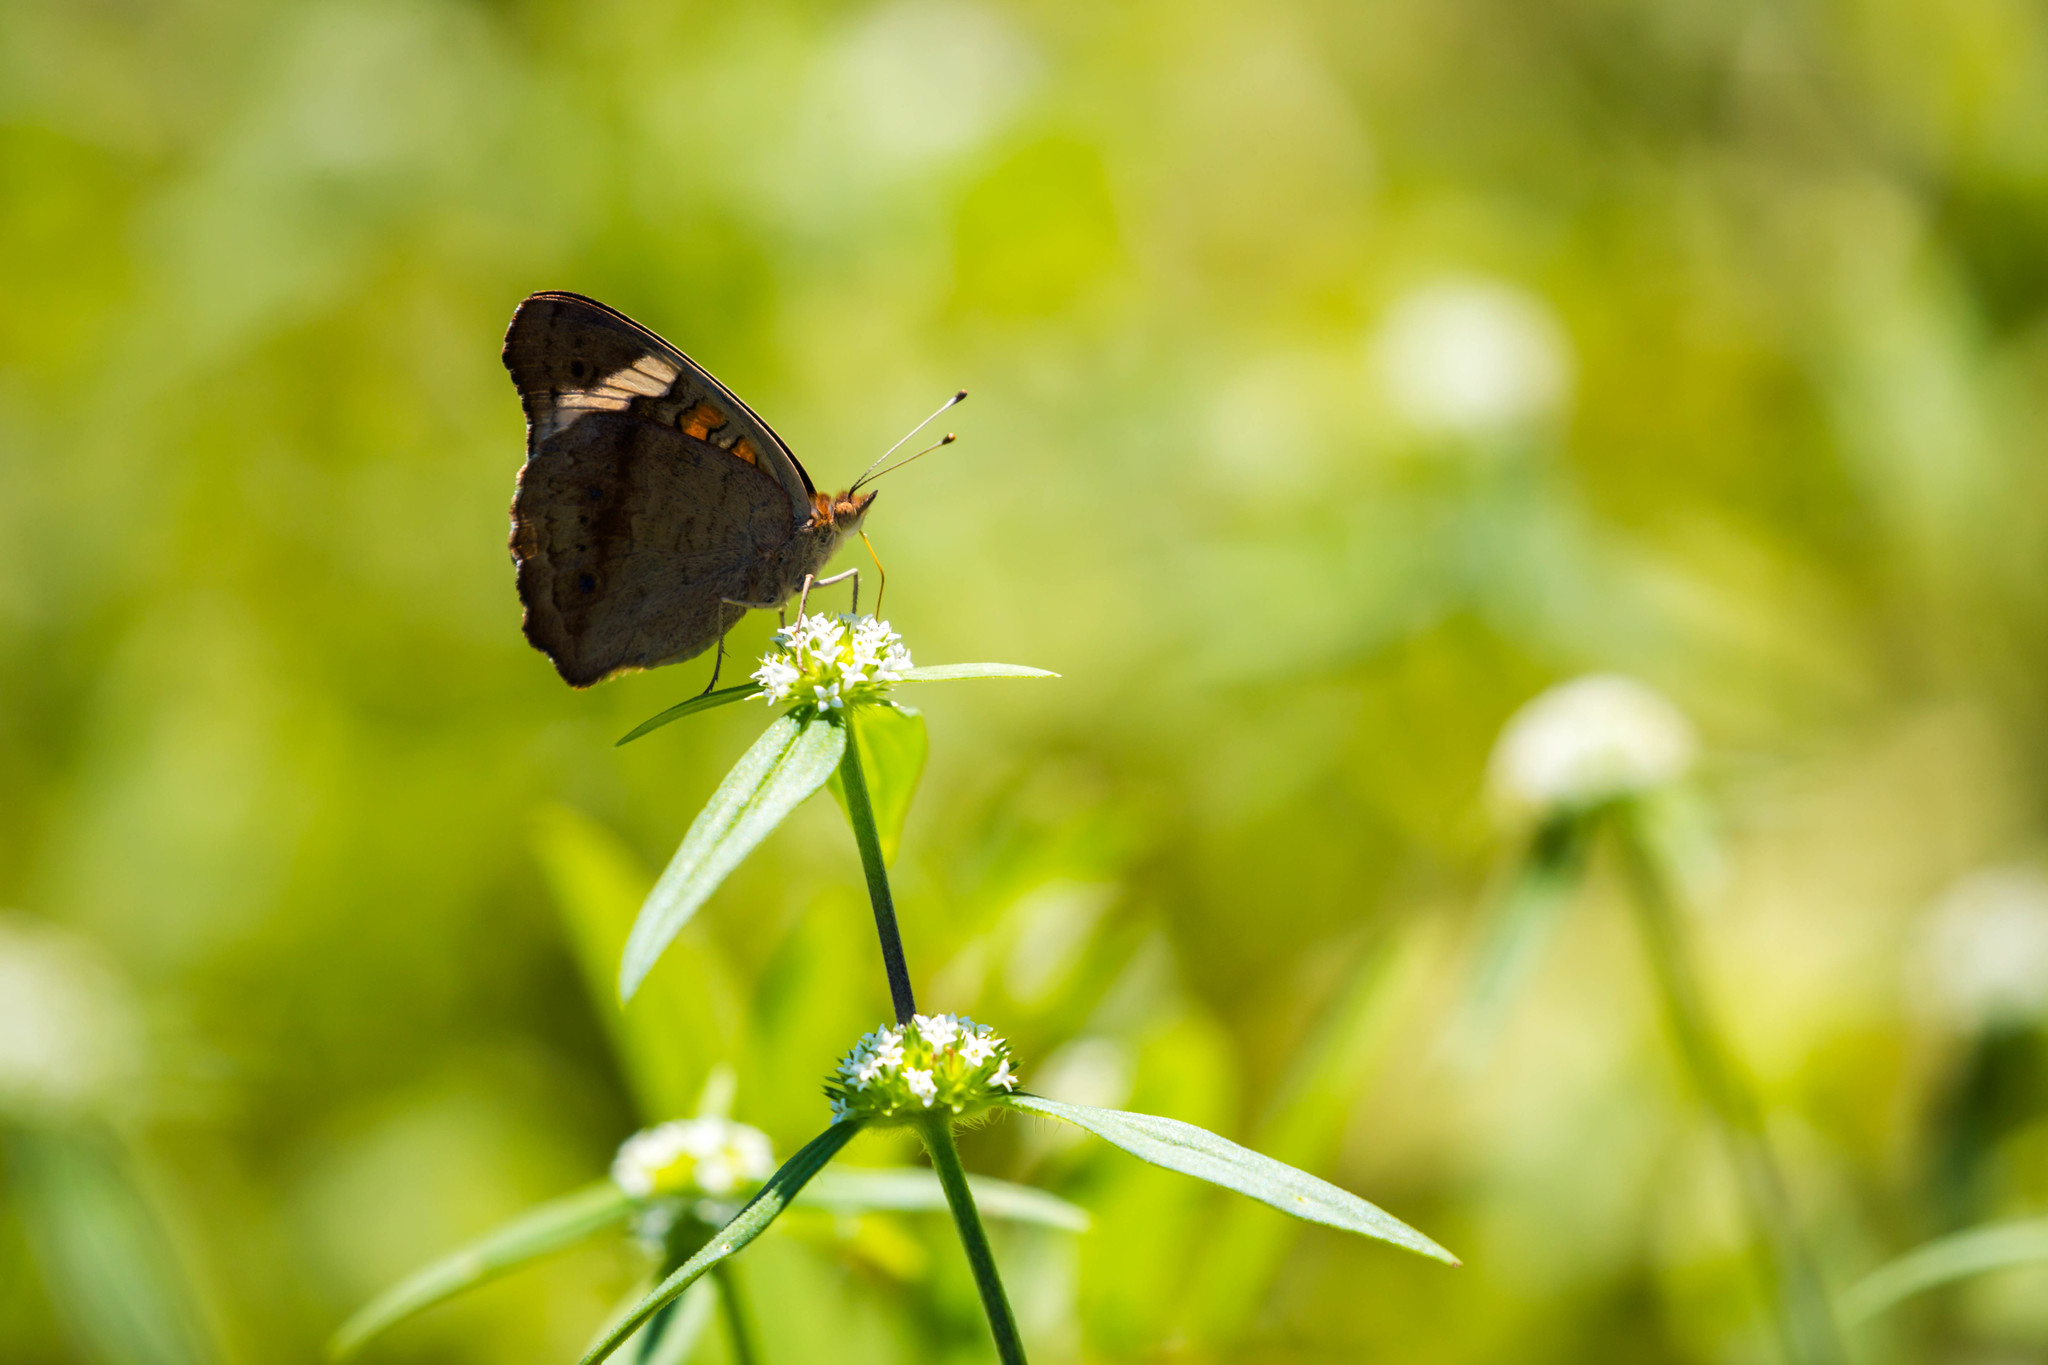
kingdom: Animalia
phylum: Arthropoda
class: Insecta
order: Lepidoptera
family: Nymphalidae
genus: Junonia
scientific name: Junonia coenia
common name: Common buckeye
